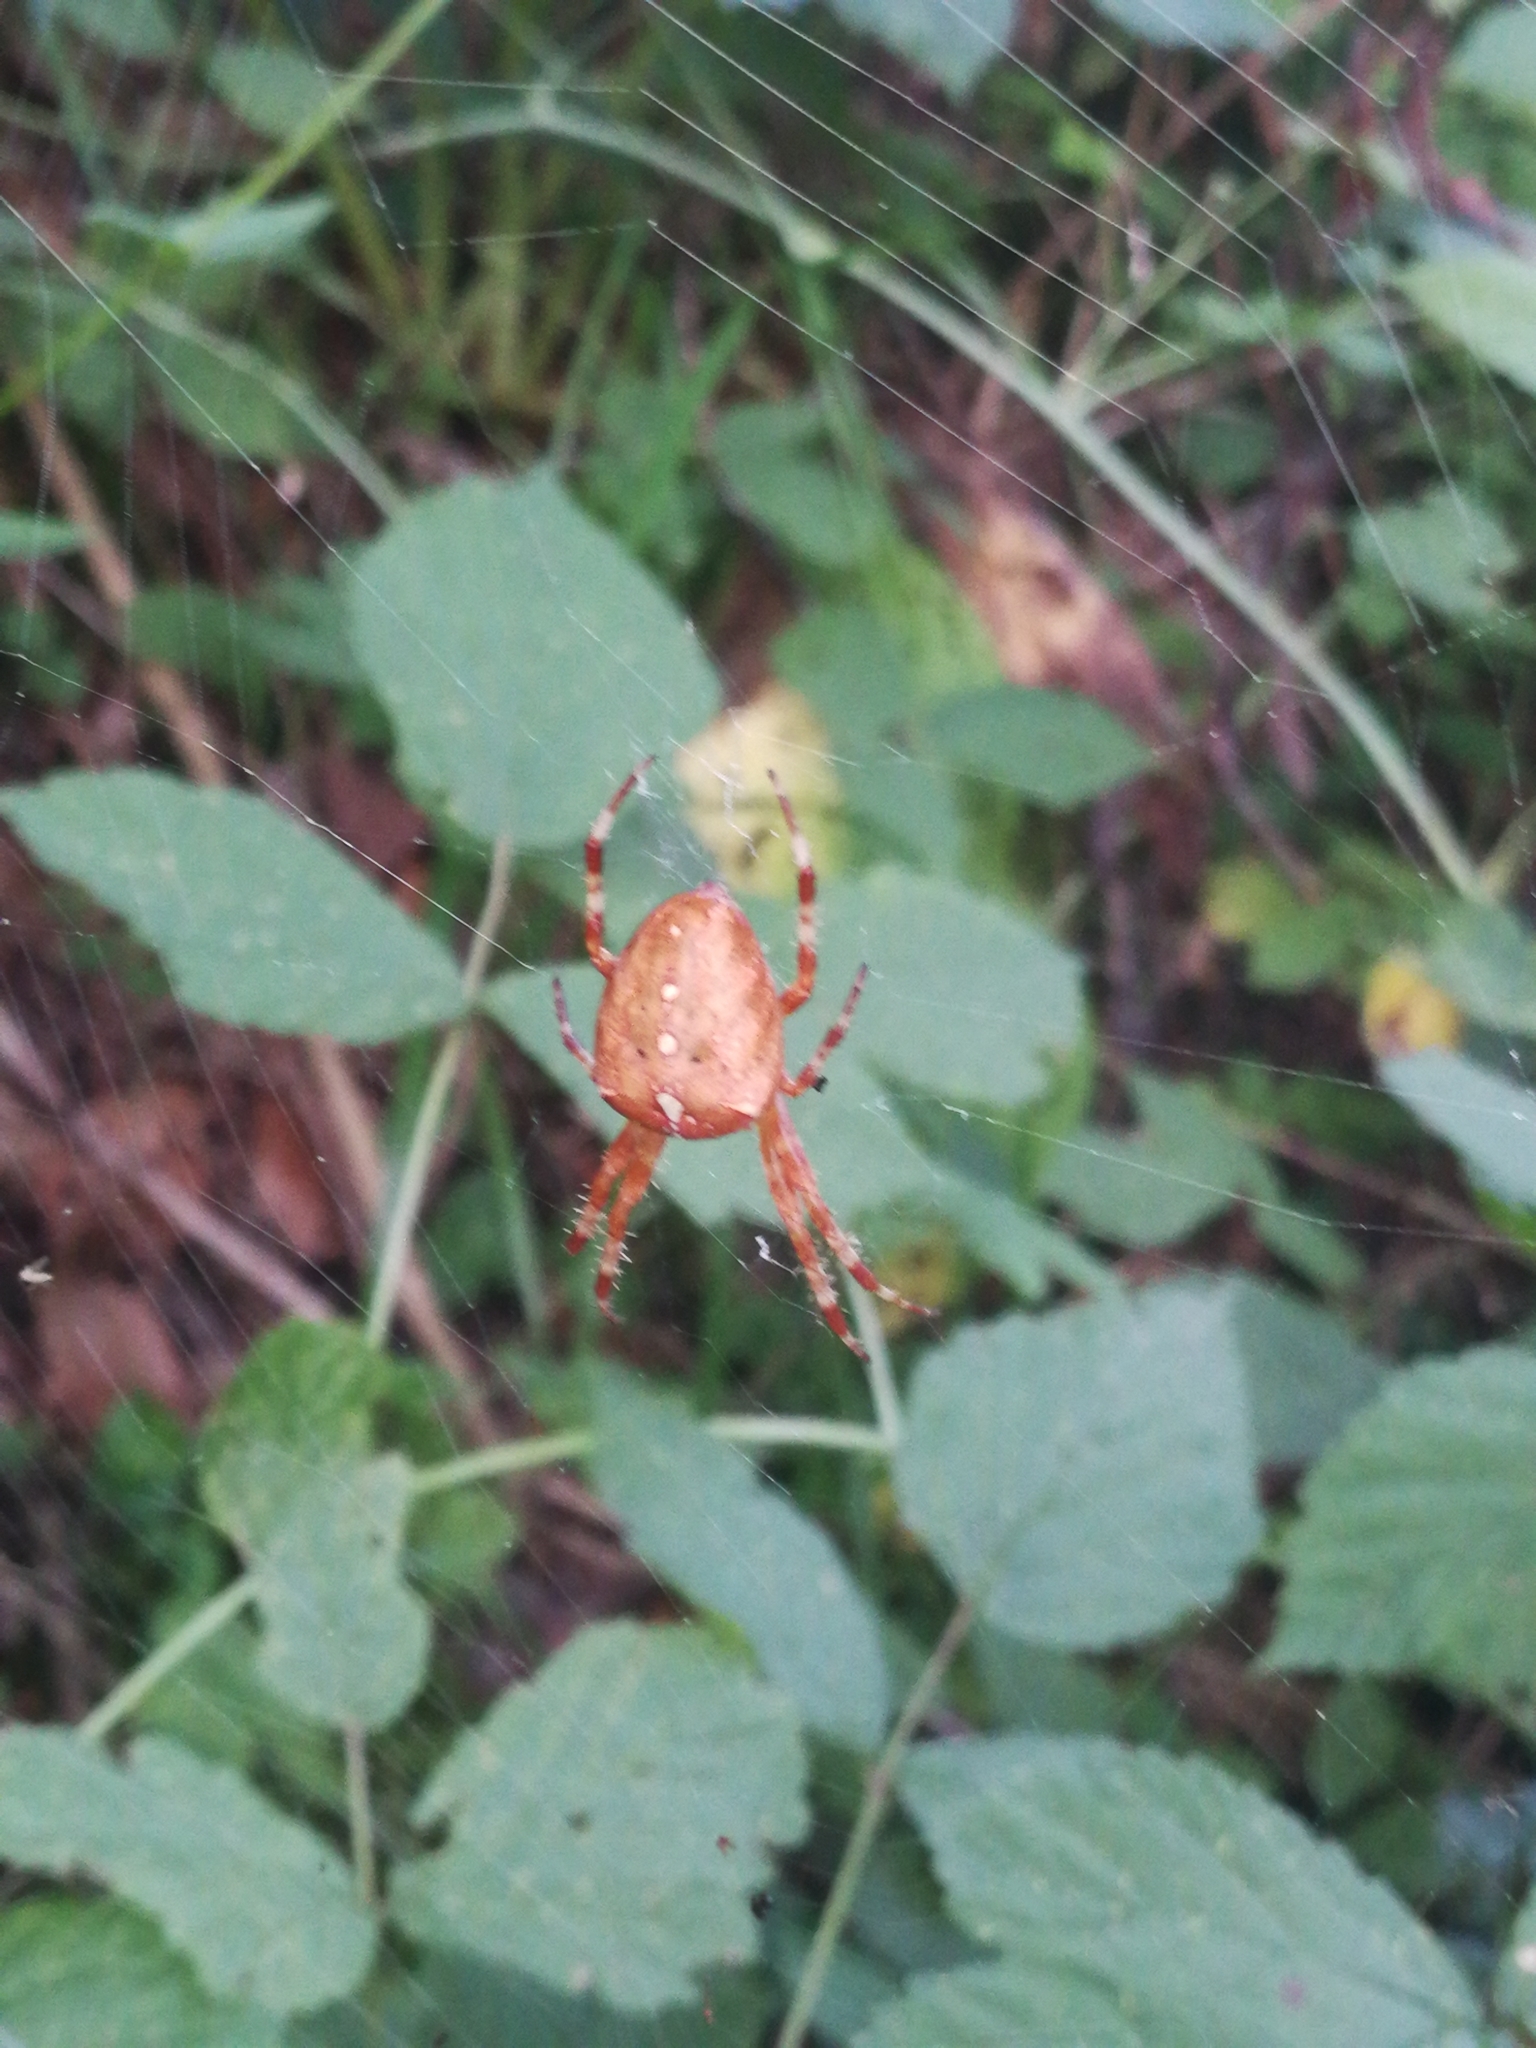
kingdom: Animalia
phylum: Arthropoda
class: Arachnida
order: Araneae
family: Araneidae
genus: Araneus
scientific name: Araneus diadematus
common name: Cross orbweaver
